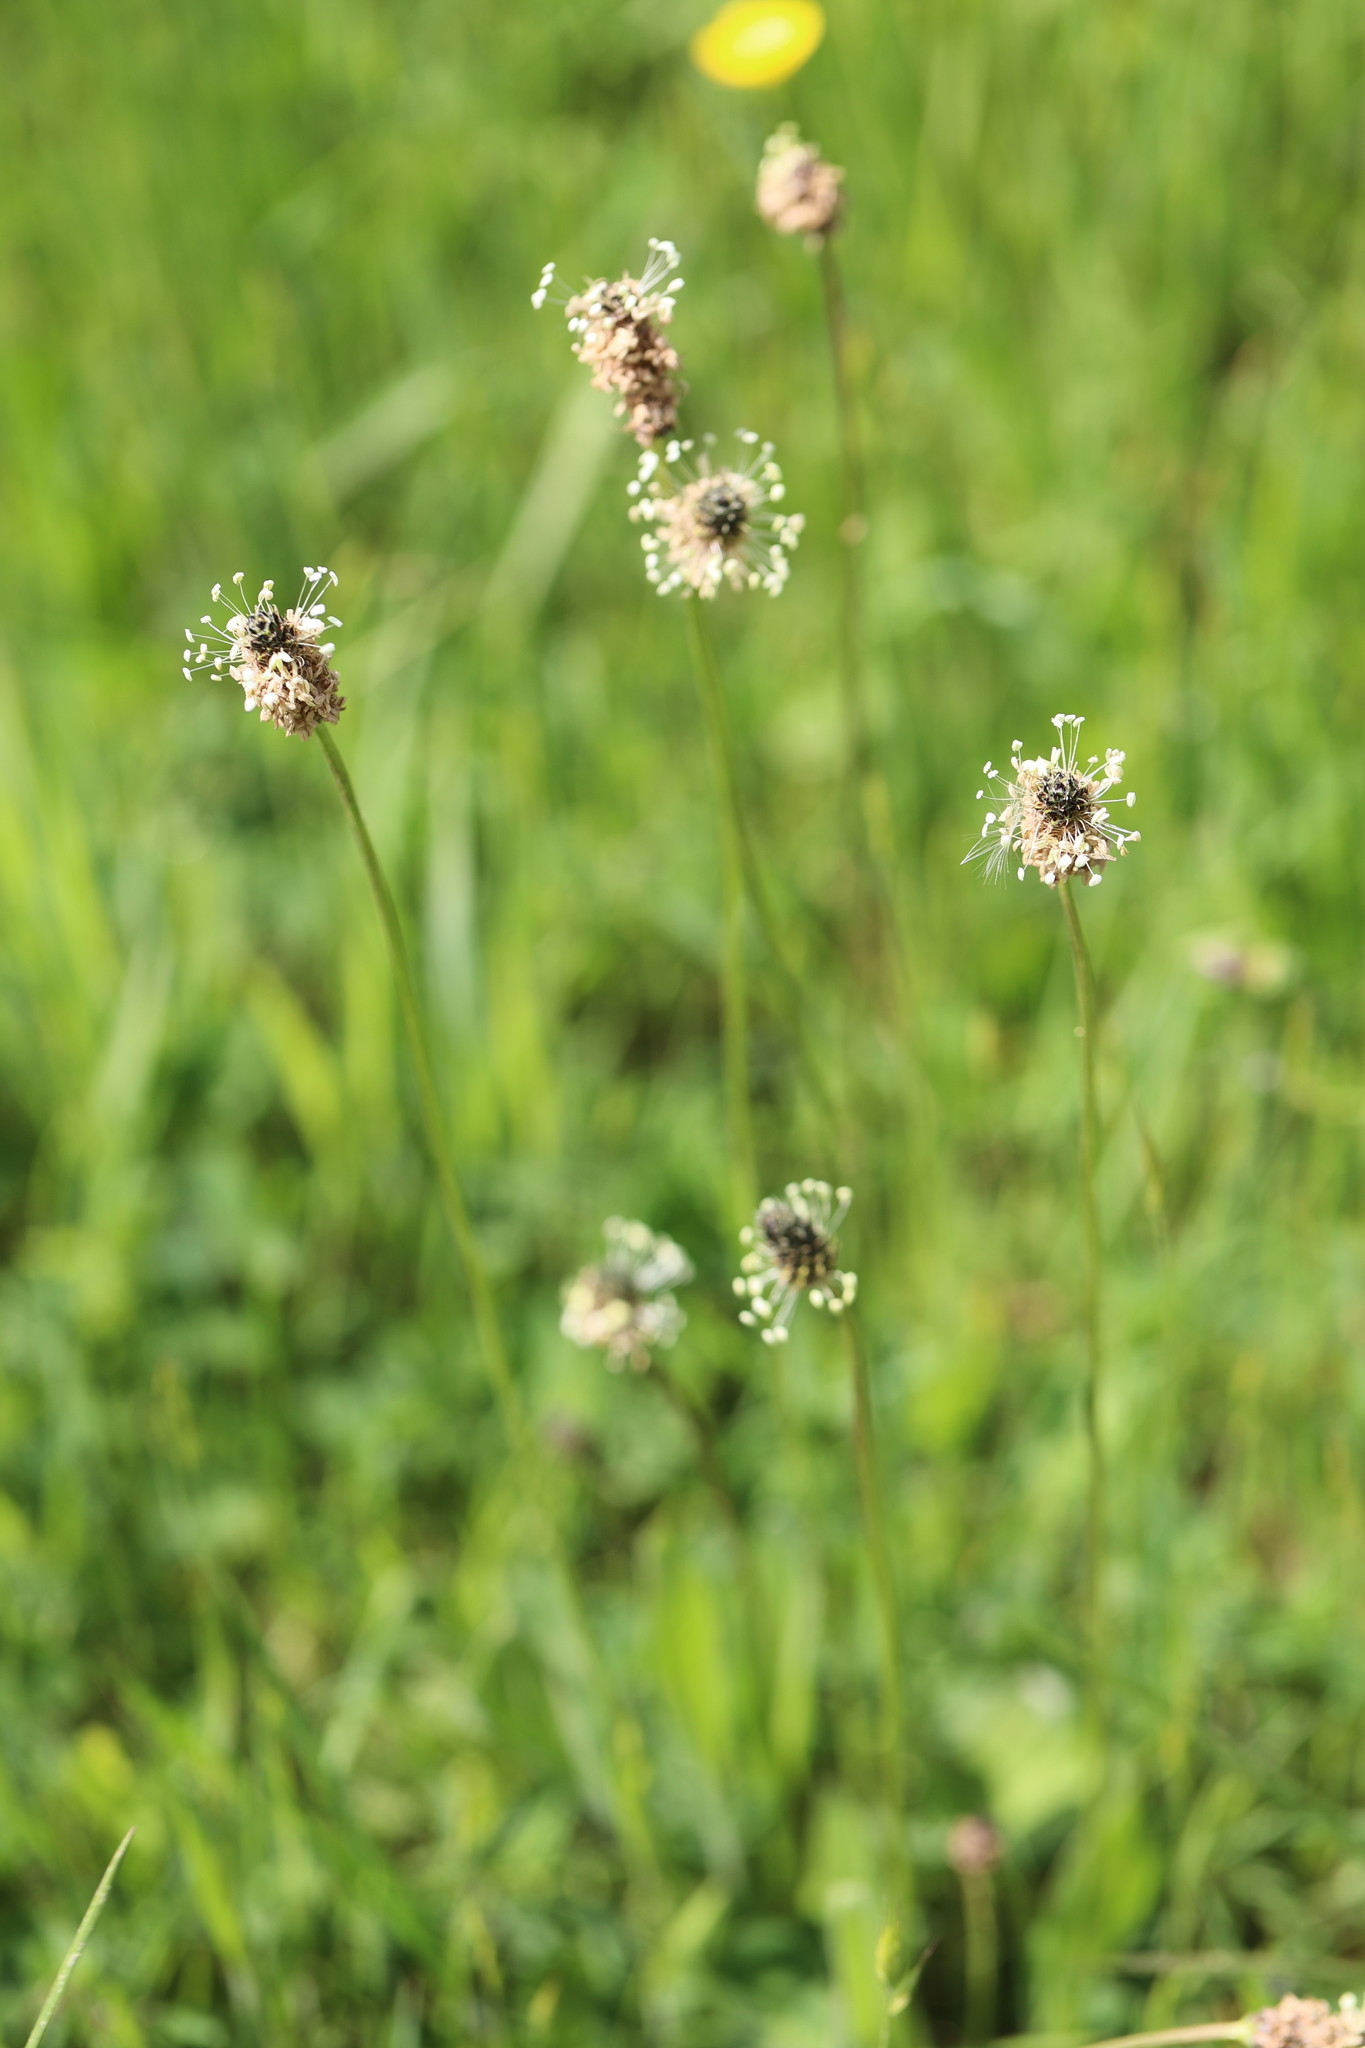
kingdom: Plantae
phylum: Tracheophyta
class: Magnoliopsida
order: Lamiales
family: Plantaginaceae
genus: Plantago
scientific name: Plantago lanceolata
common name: Ribwort plantain
